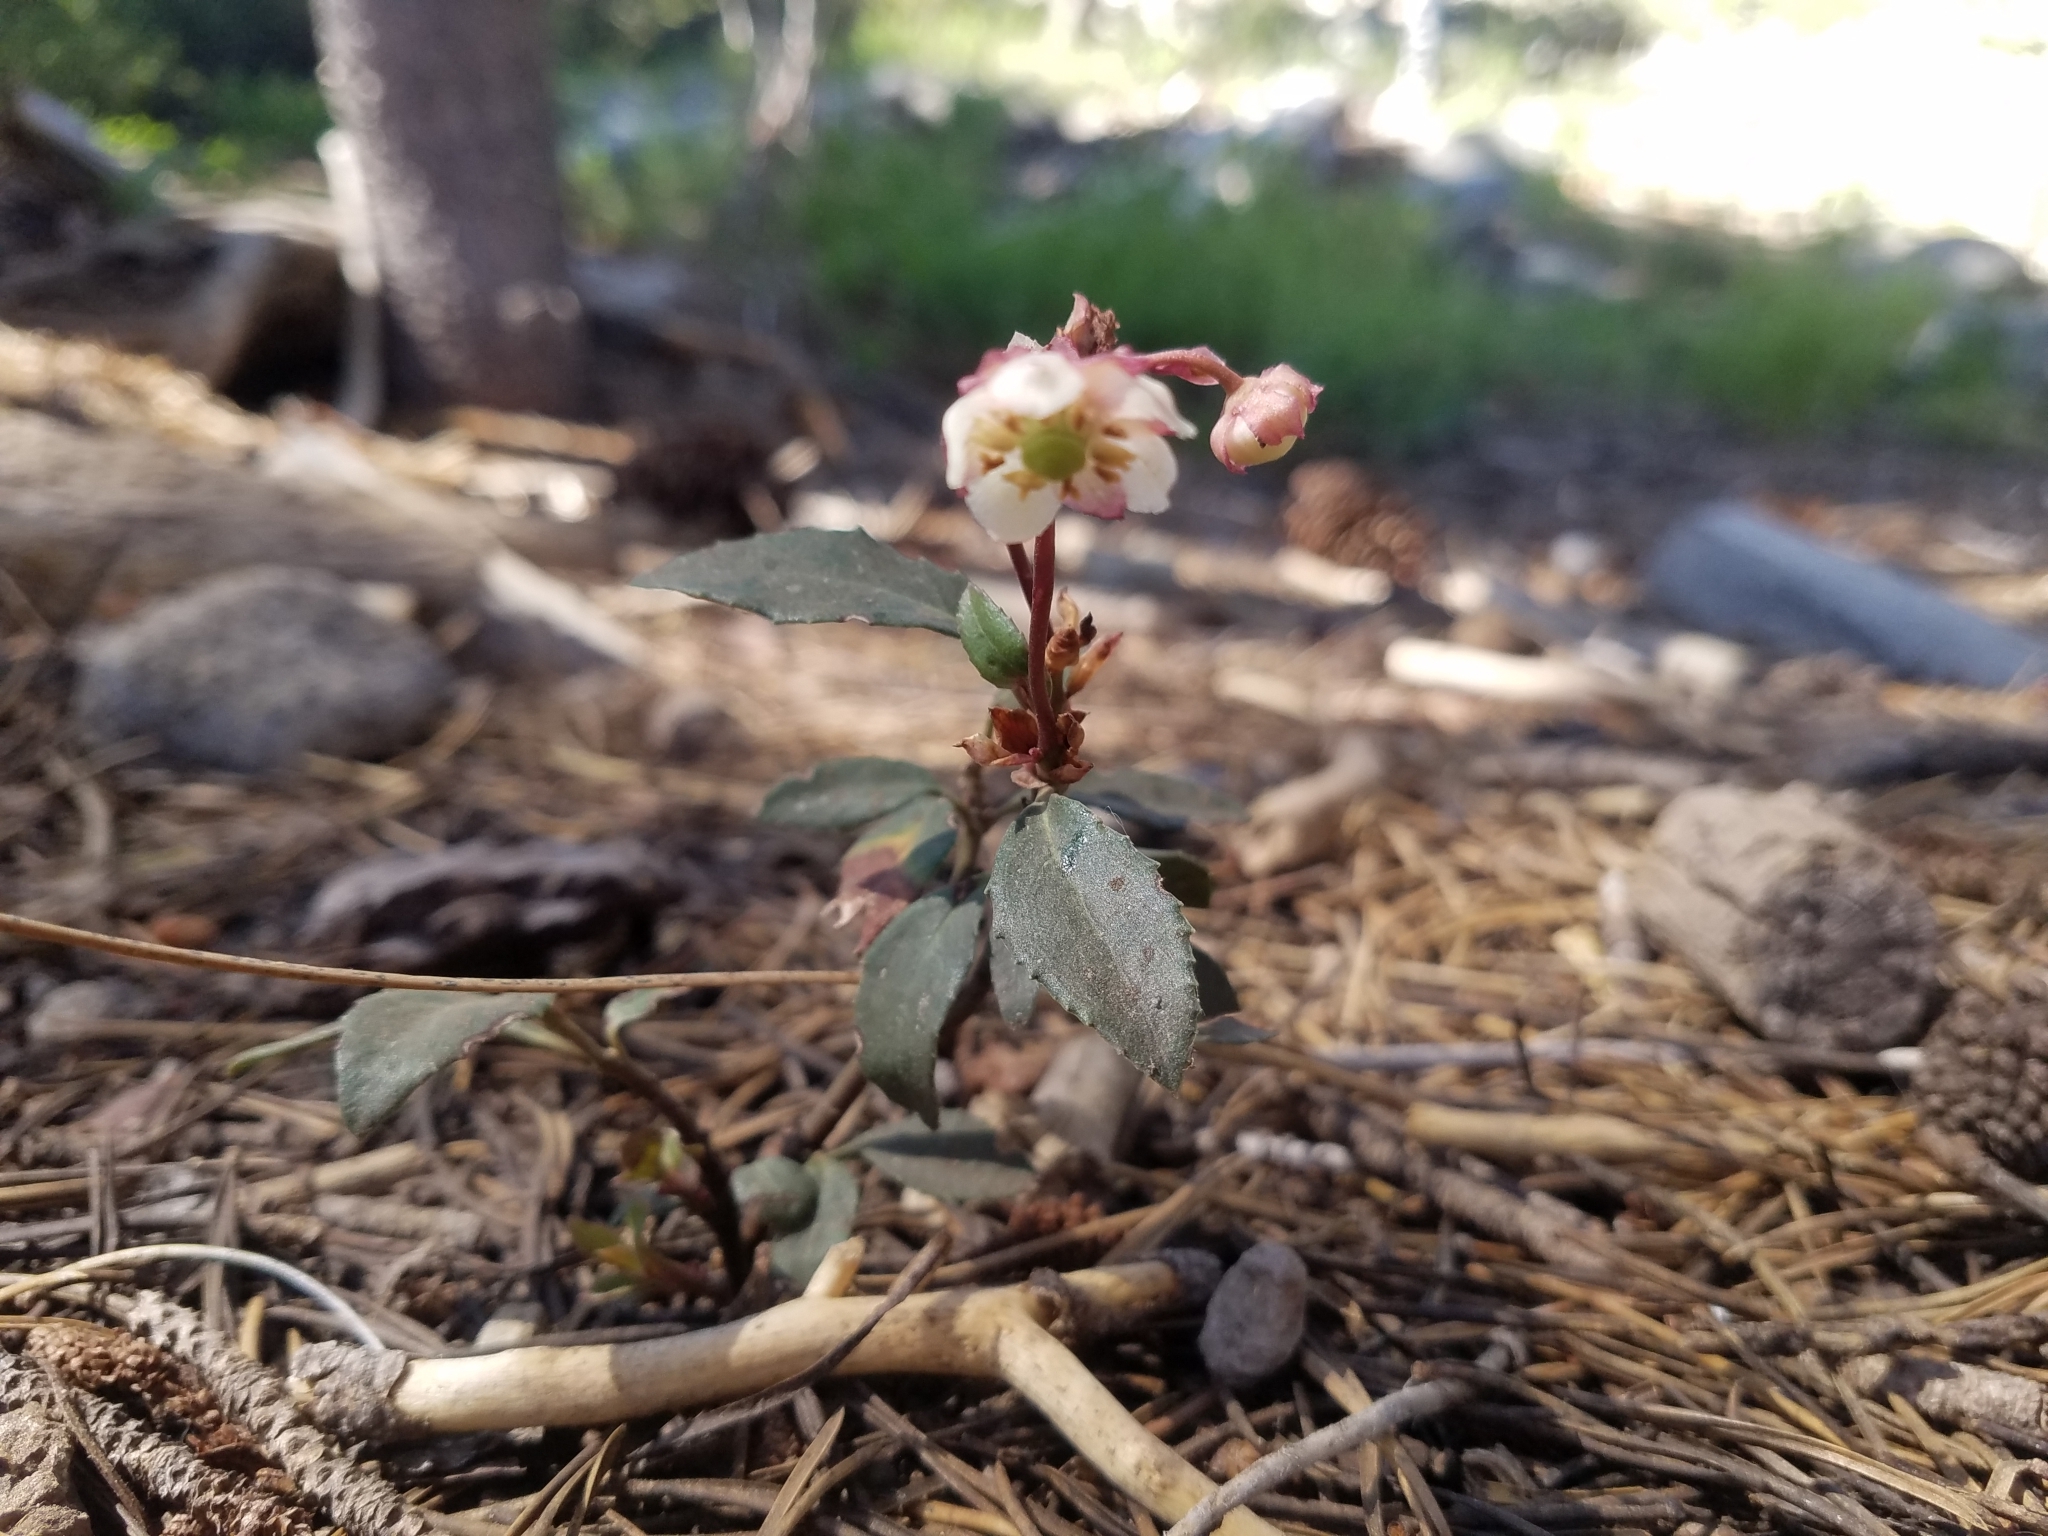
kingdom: Plantae
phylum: Tracheophyta
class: Magnoliopsida
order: Ericales
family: Ericaceae
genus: Chimaphila
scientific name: Chimaphila menziesii
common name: Menzies' pipsissewa
